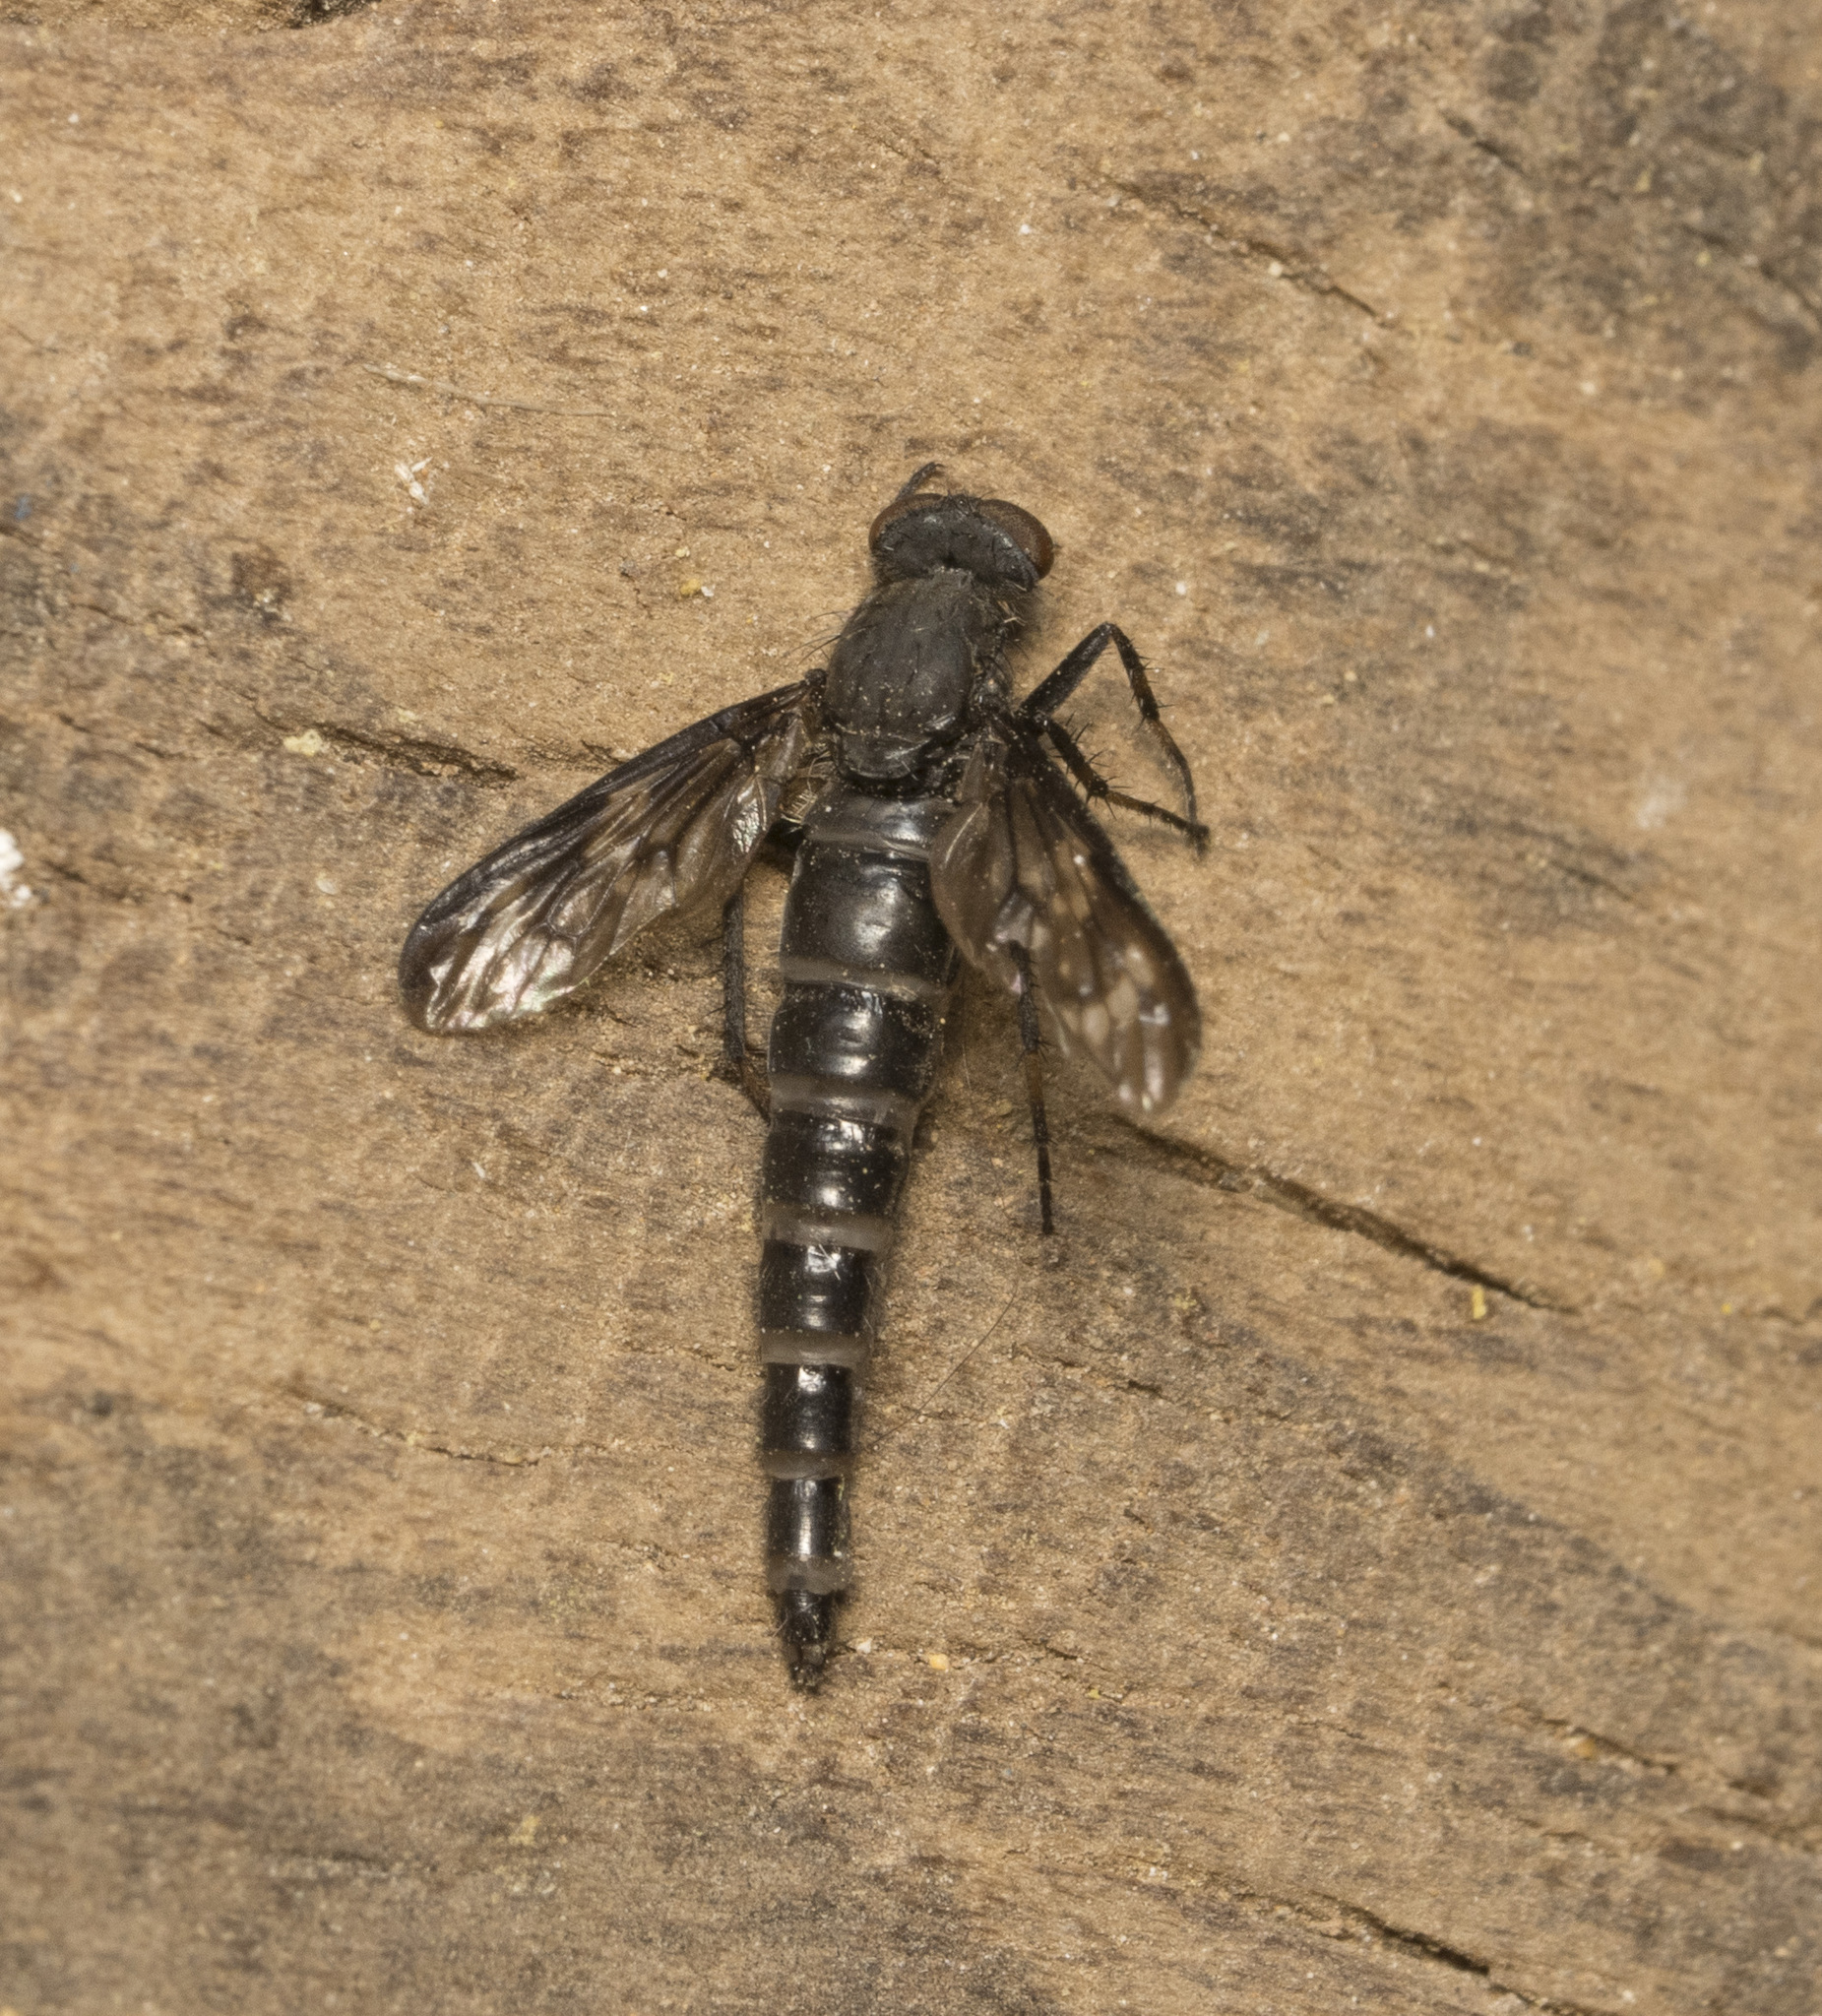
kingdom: Animalia
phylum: Arthropoda
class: Insecta
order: Diptera
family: Therevidae
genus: Pachyrrhiza
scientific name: Pachyrrhiza pictipennis
